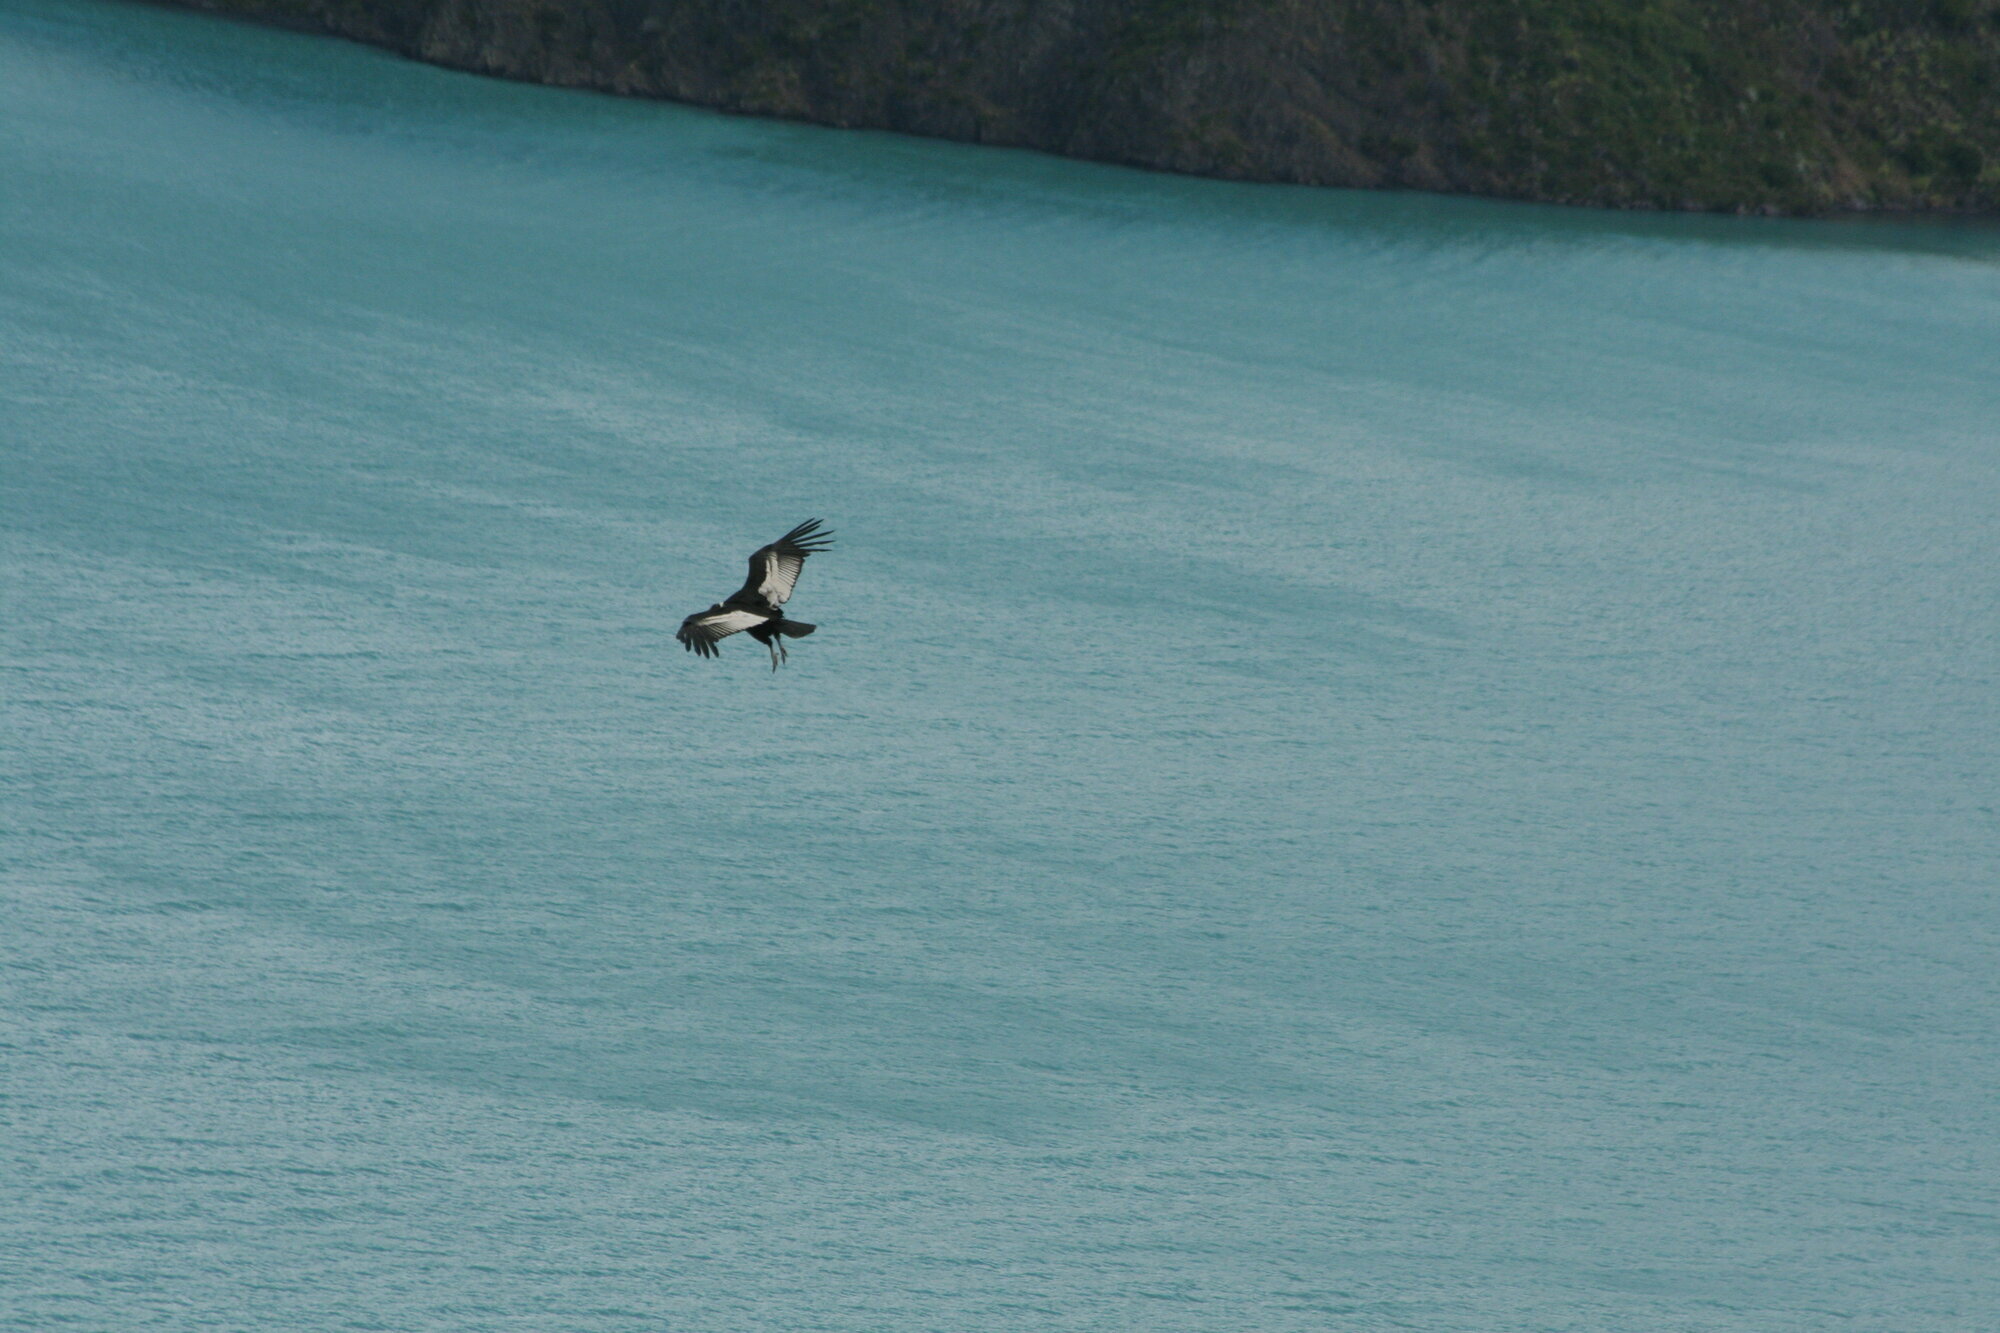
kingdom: Animalia
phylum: Chordata
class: Aves
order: Accipitriformes
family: Cathartidae
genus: Vultur
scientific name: Vultur gryphus
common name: Andean condor
